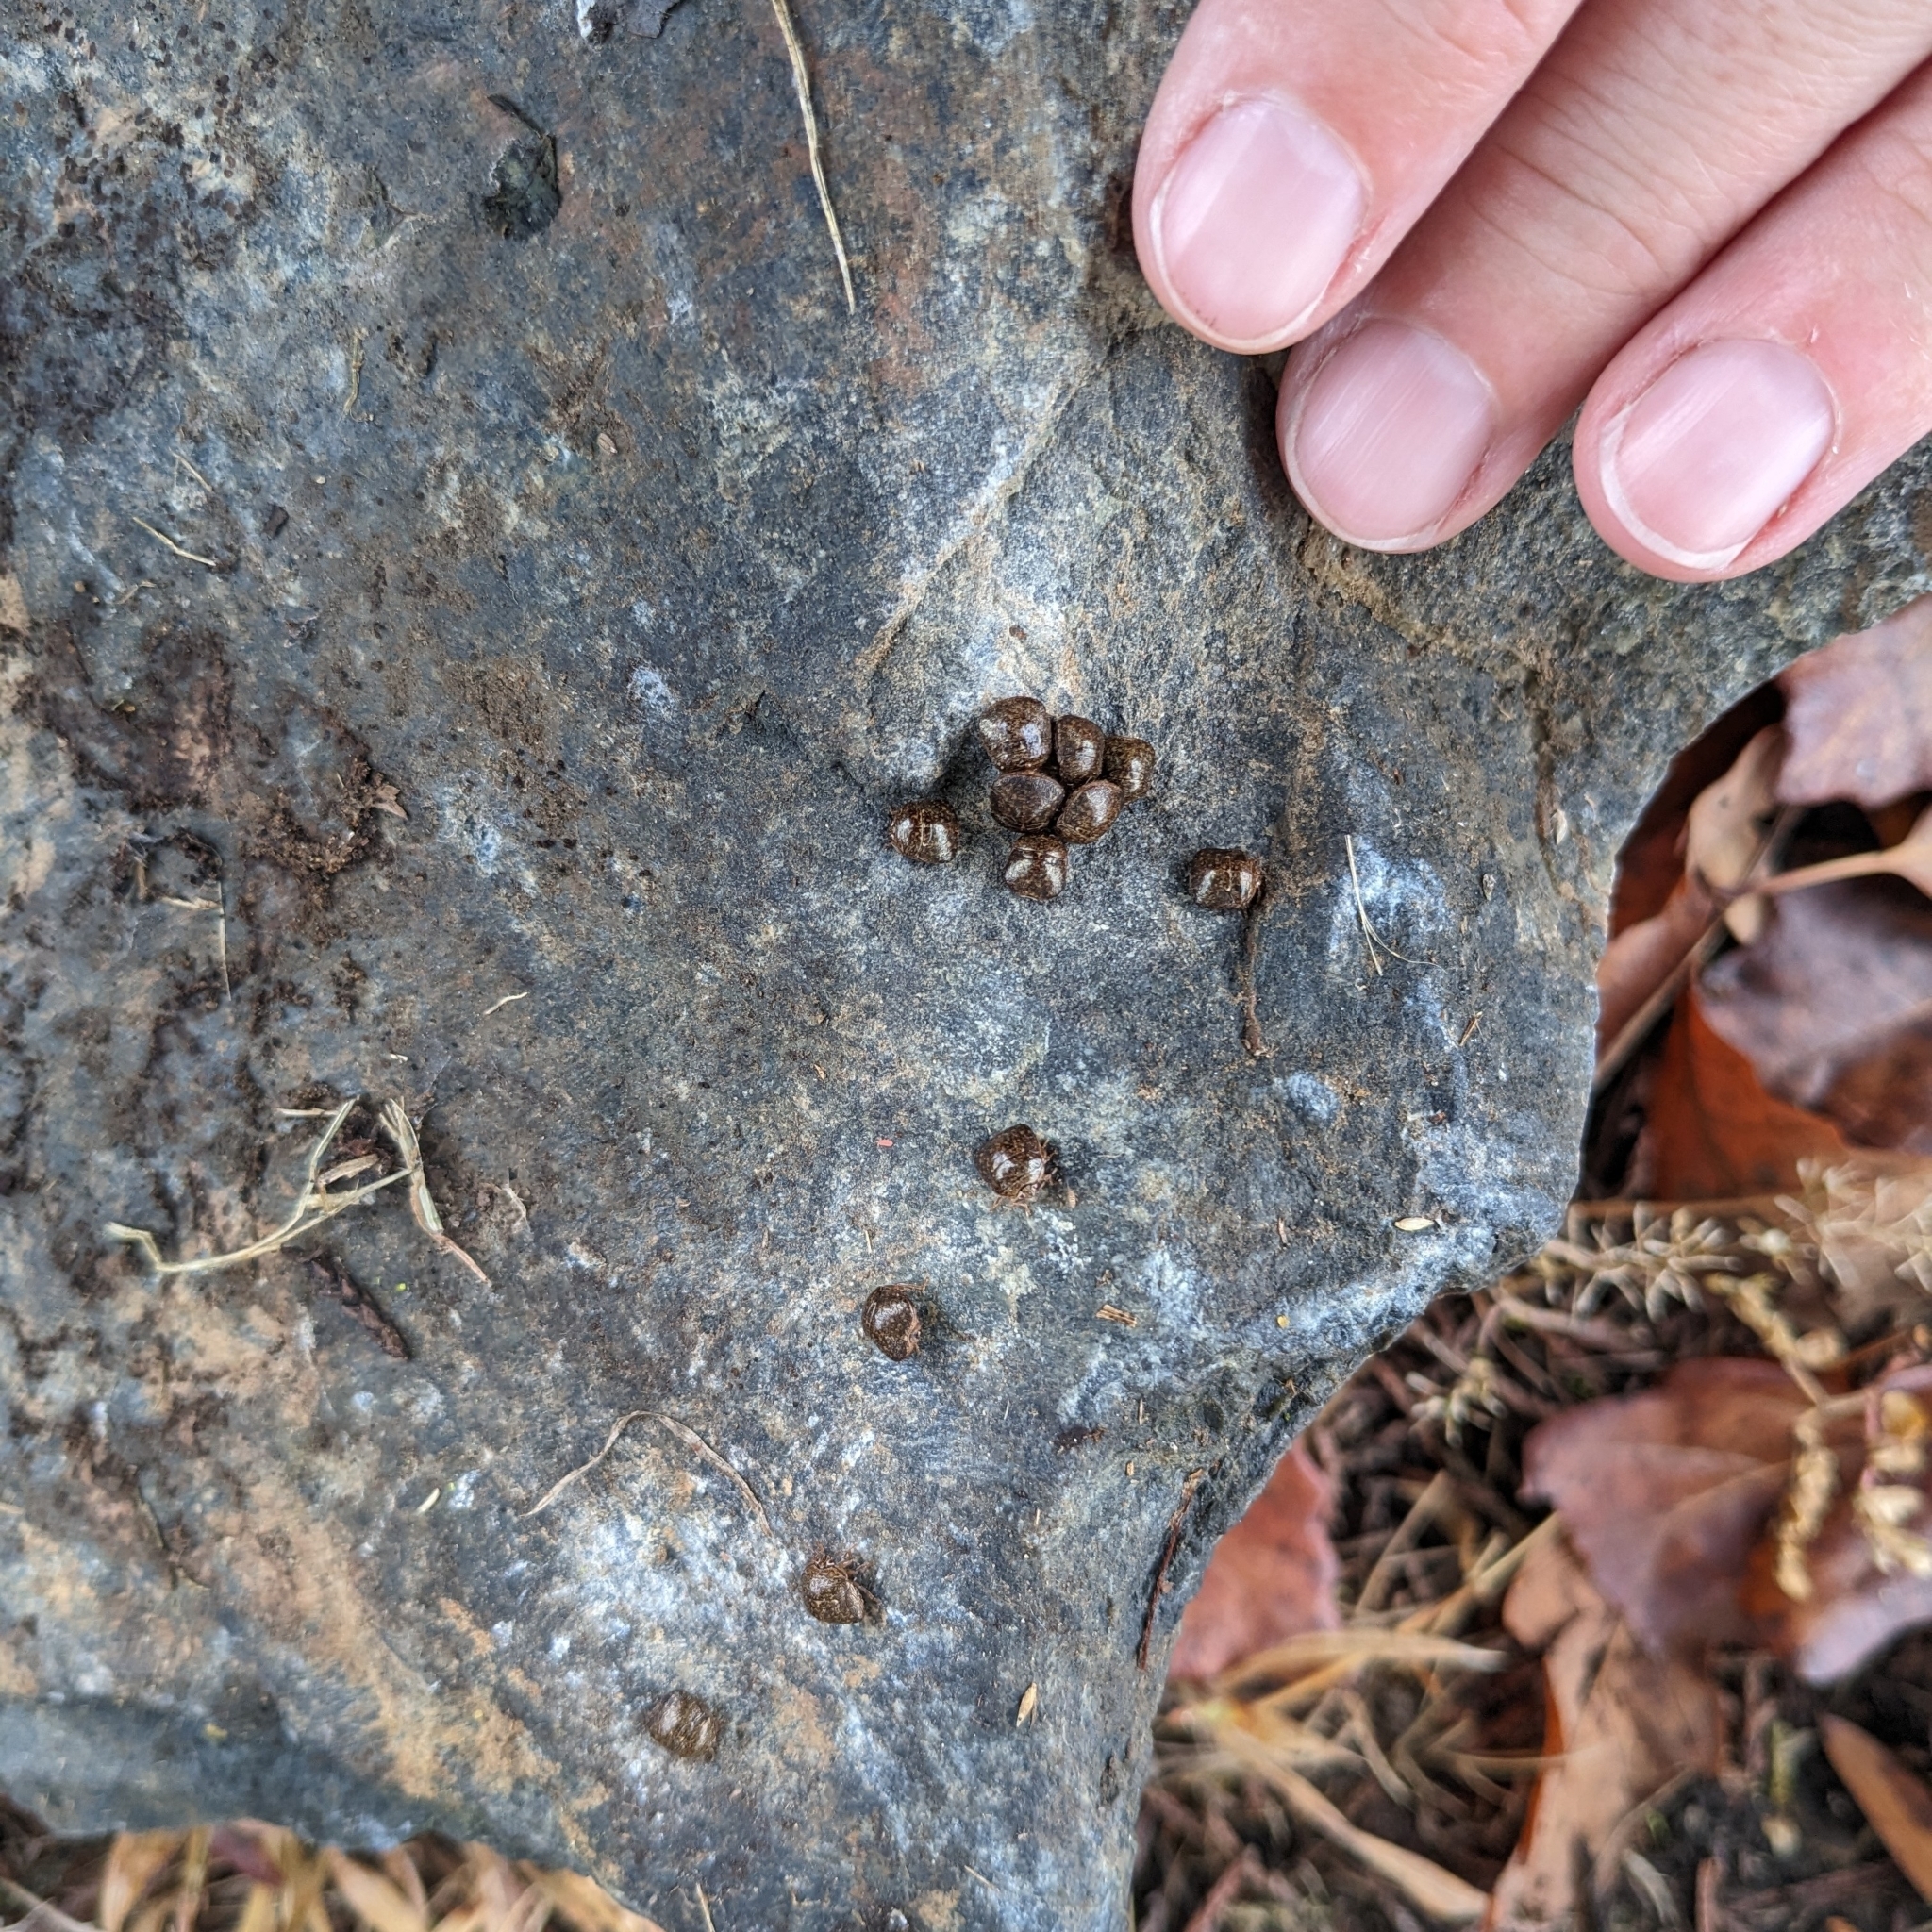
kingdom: Animalia
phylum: Arthropoda
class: Insecta
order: Hemiptera
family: Plataspidae
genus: Megacopta
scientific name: Megacopta cribraria
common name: Bean plataspid
